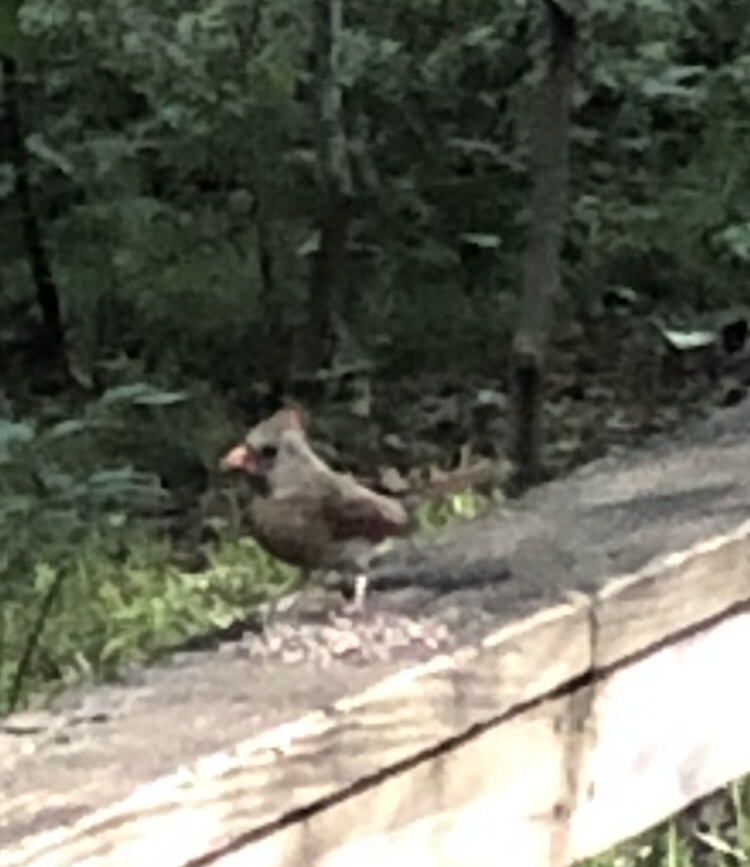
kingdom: Animalia
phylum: Chordata
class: Aves
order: Passeriformes
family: Cardinalidae
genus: Cardinalis
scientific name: Cardinalis cardinalis
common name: Northern cardinal
